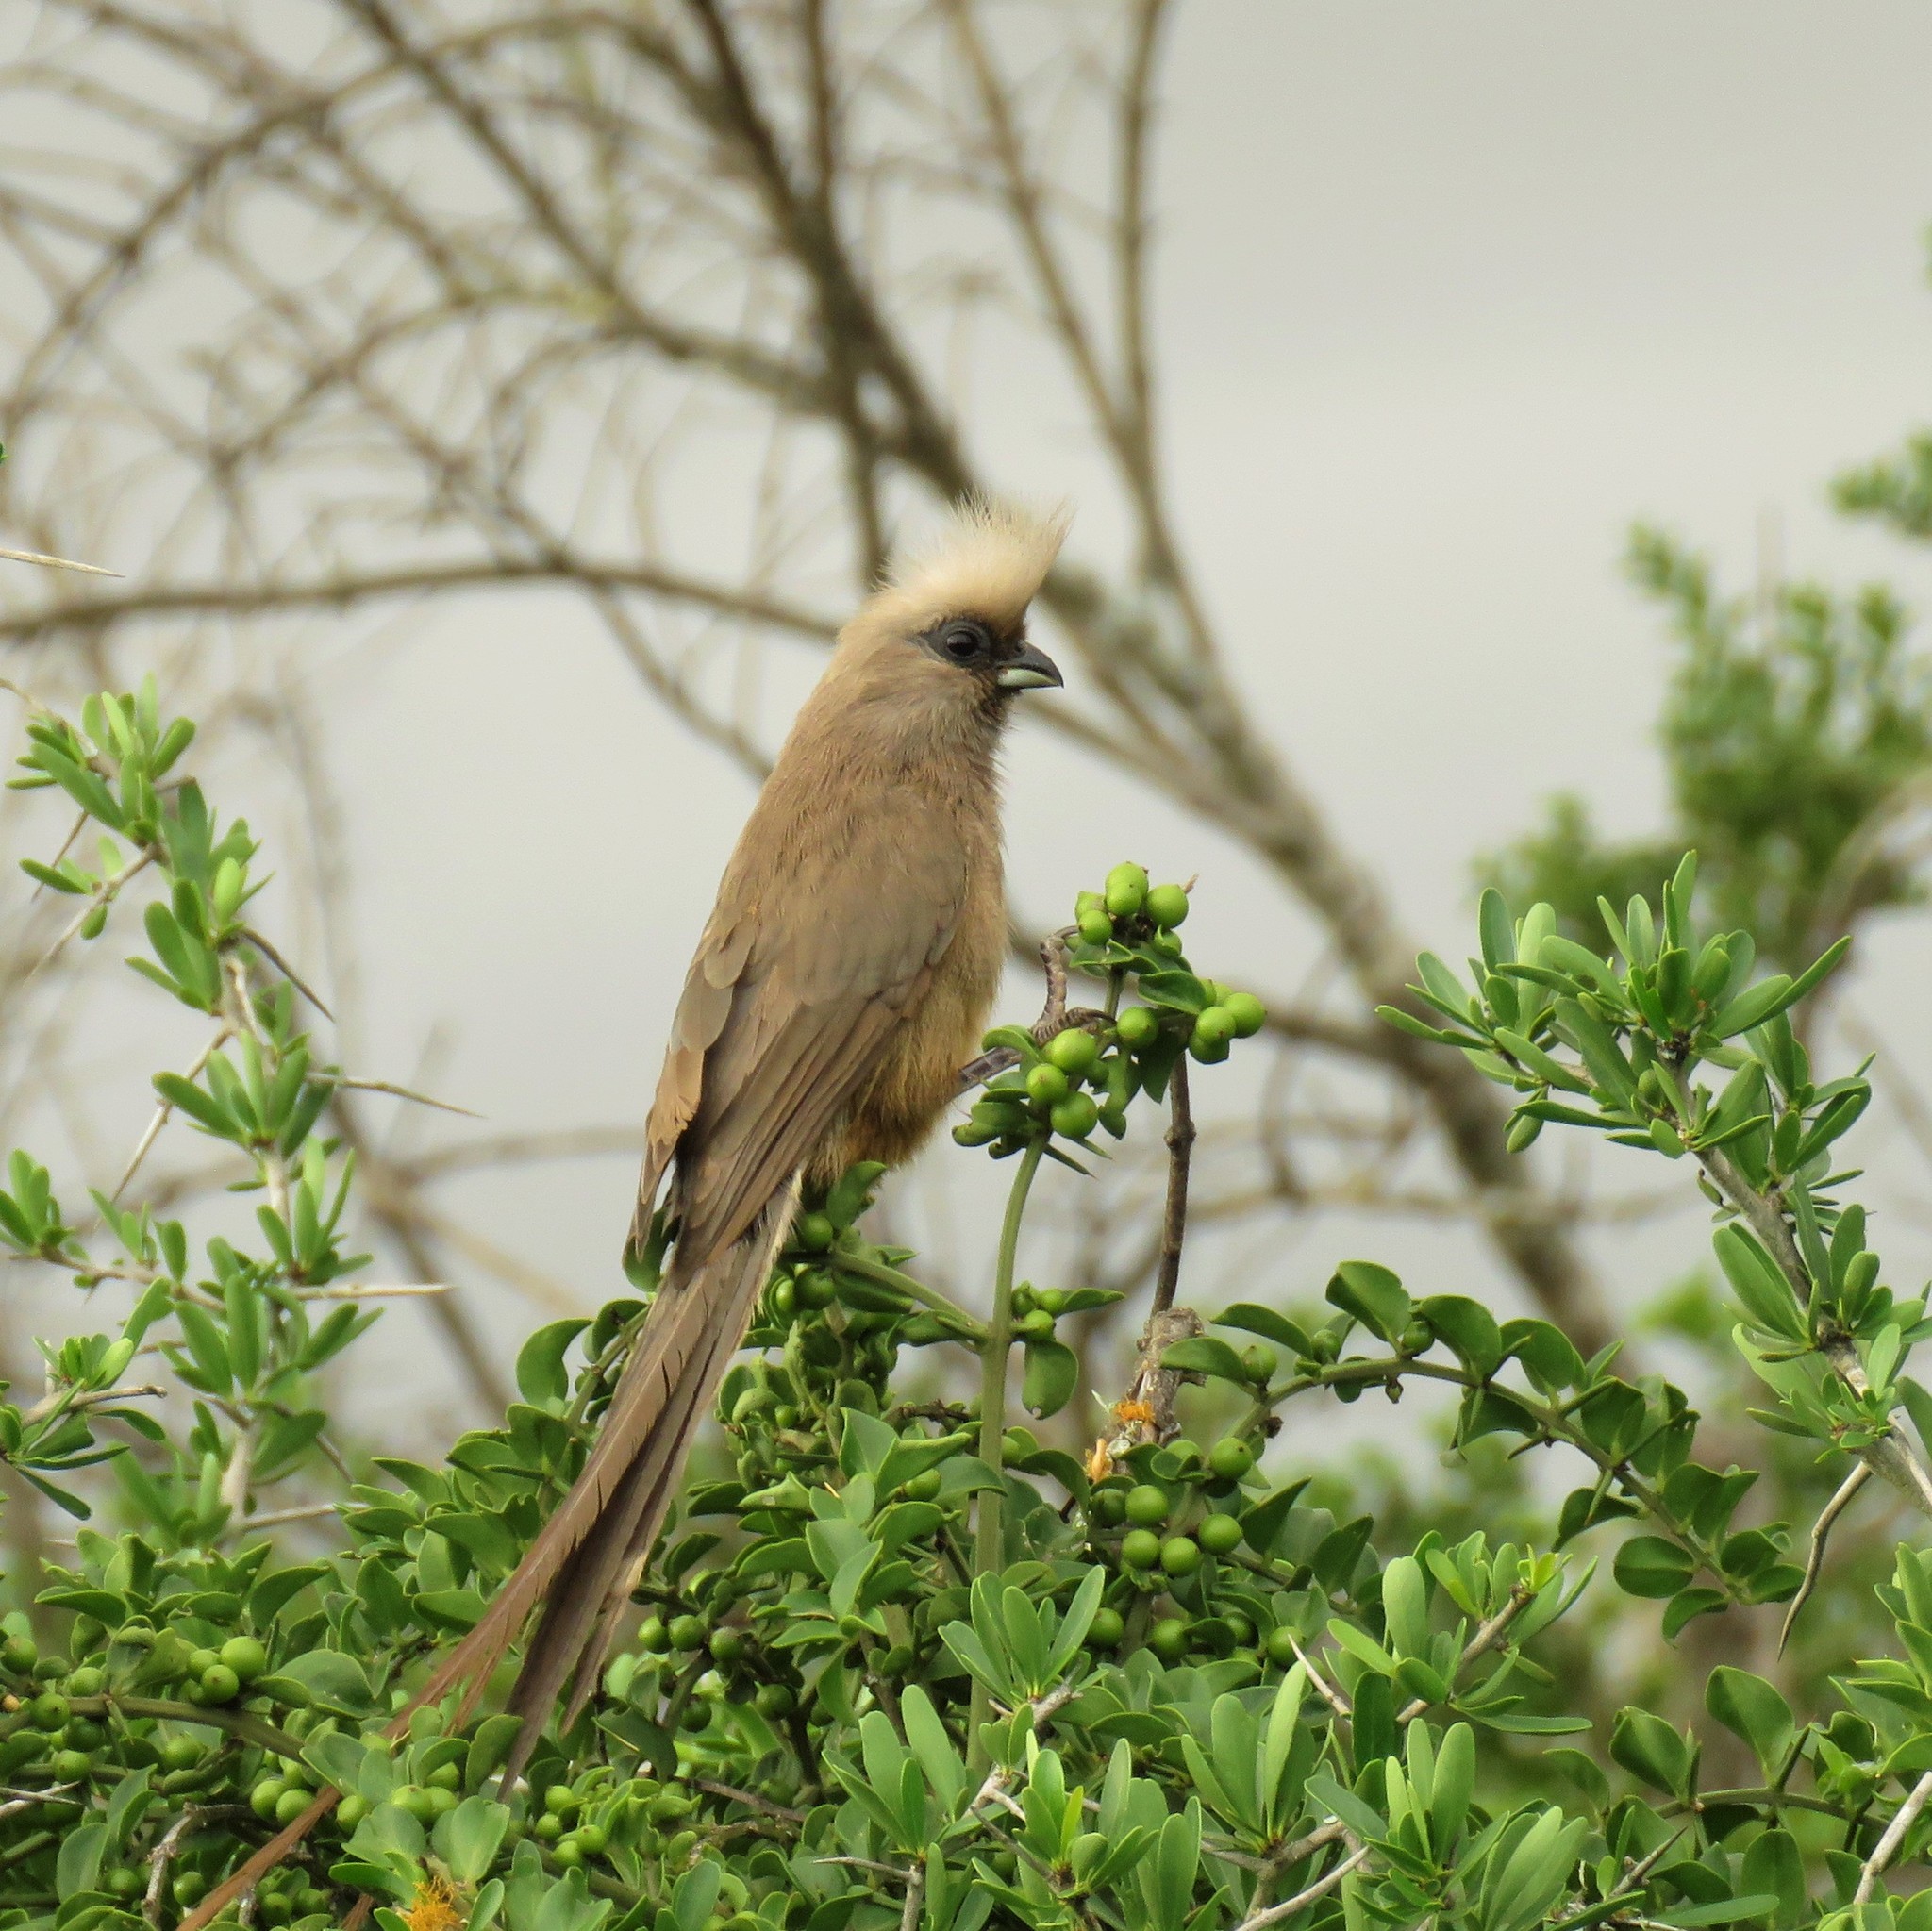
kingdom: Animalia
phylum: Chordata
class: Aves
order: Coliiformes
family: Coliidae
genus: Colius
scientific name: Colius striatus
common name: Speckled mousebird
